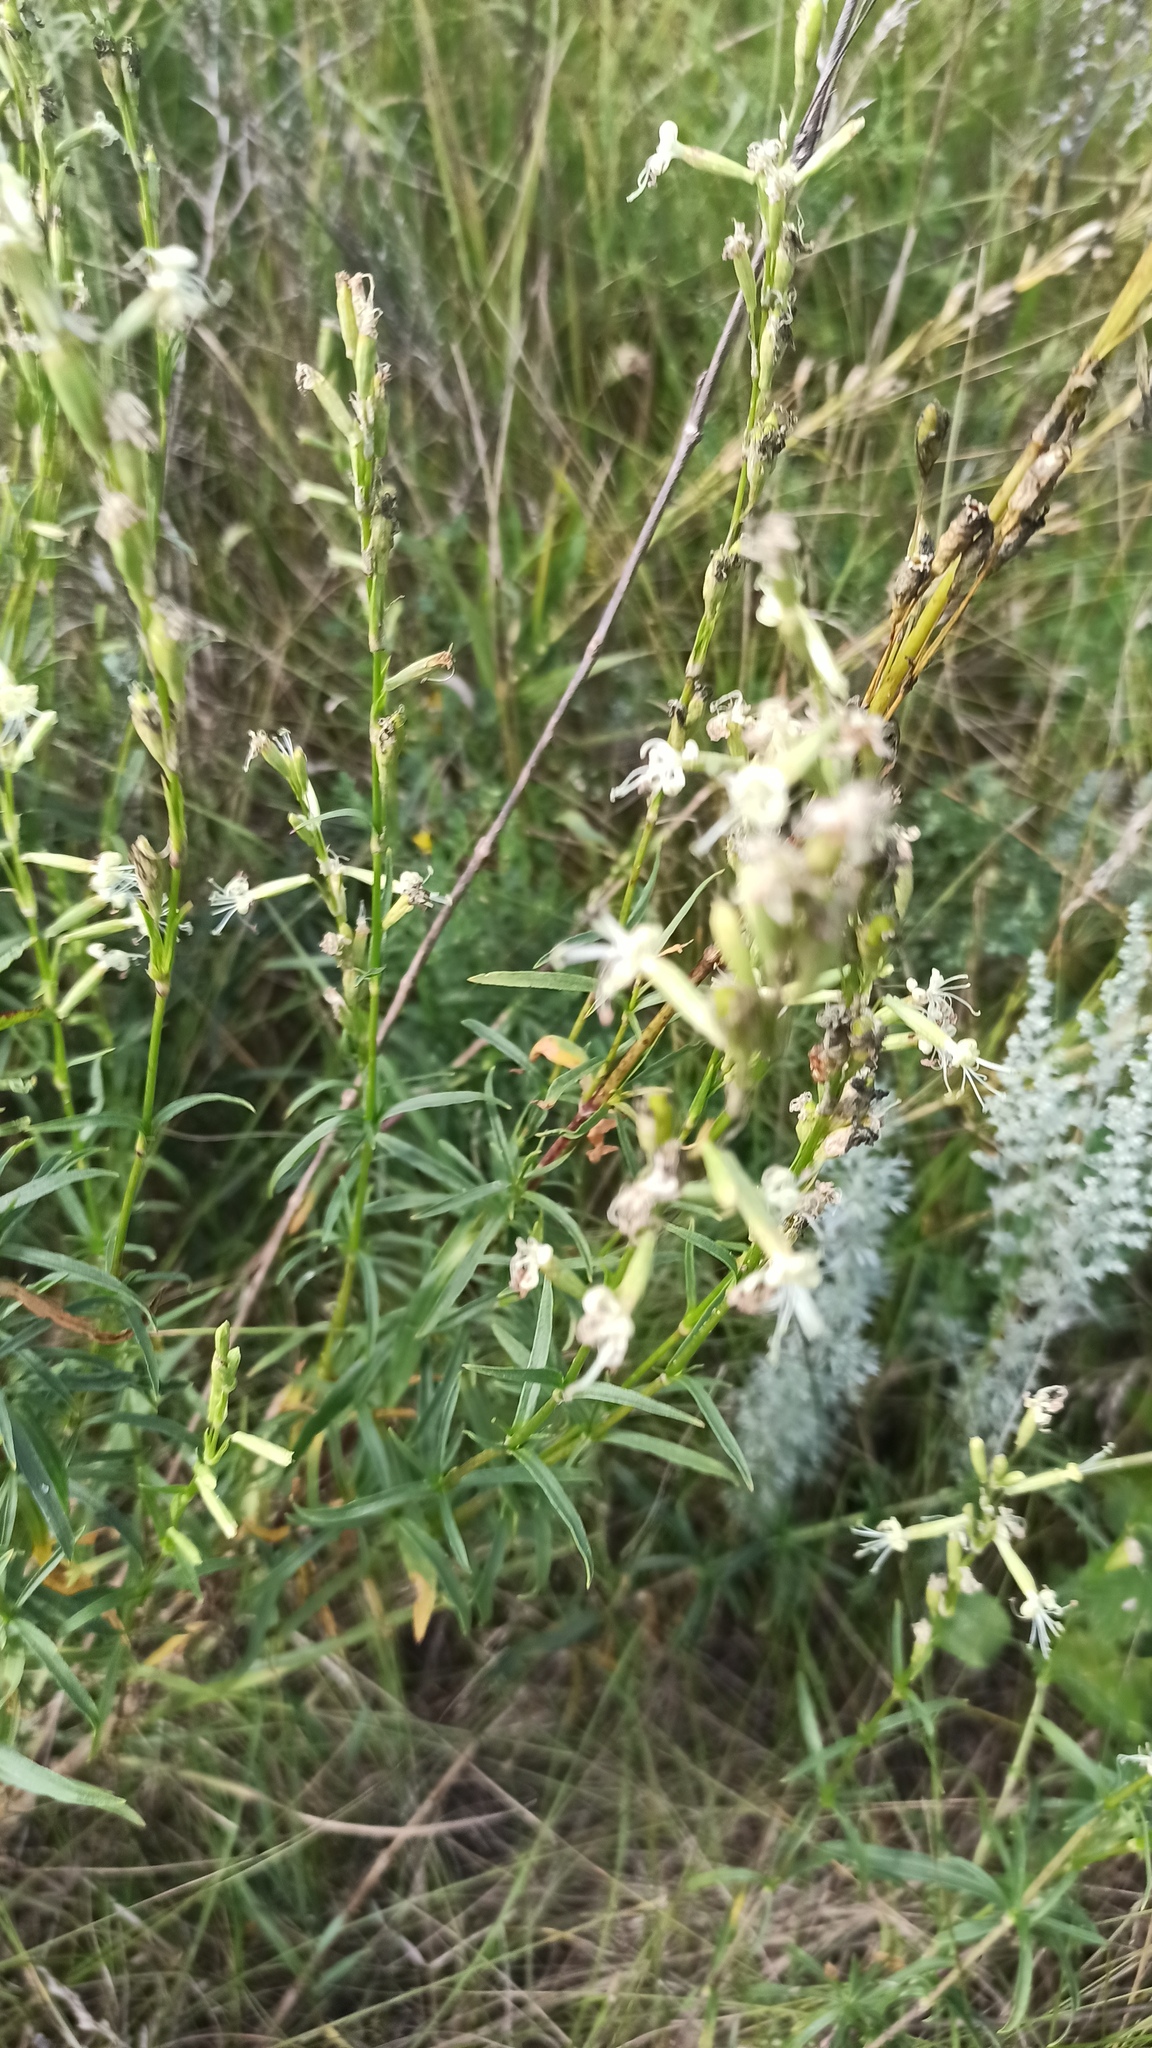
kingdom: Plantae
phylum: Tracheophyta
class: Magnoliopsida
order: Caryophyllales
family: Caryophyllaceae
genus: Silene
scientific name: Silene tatarica
